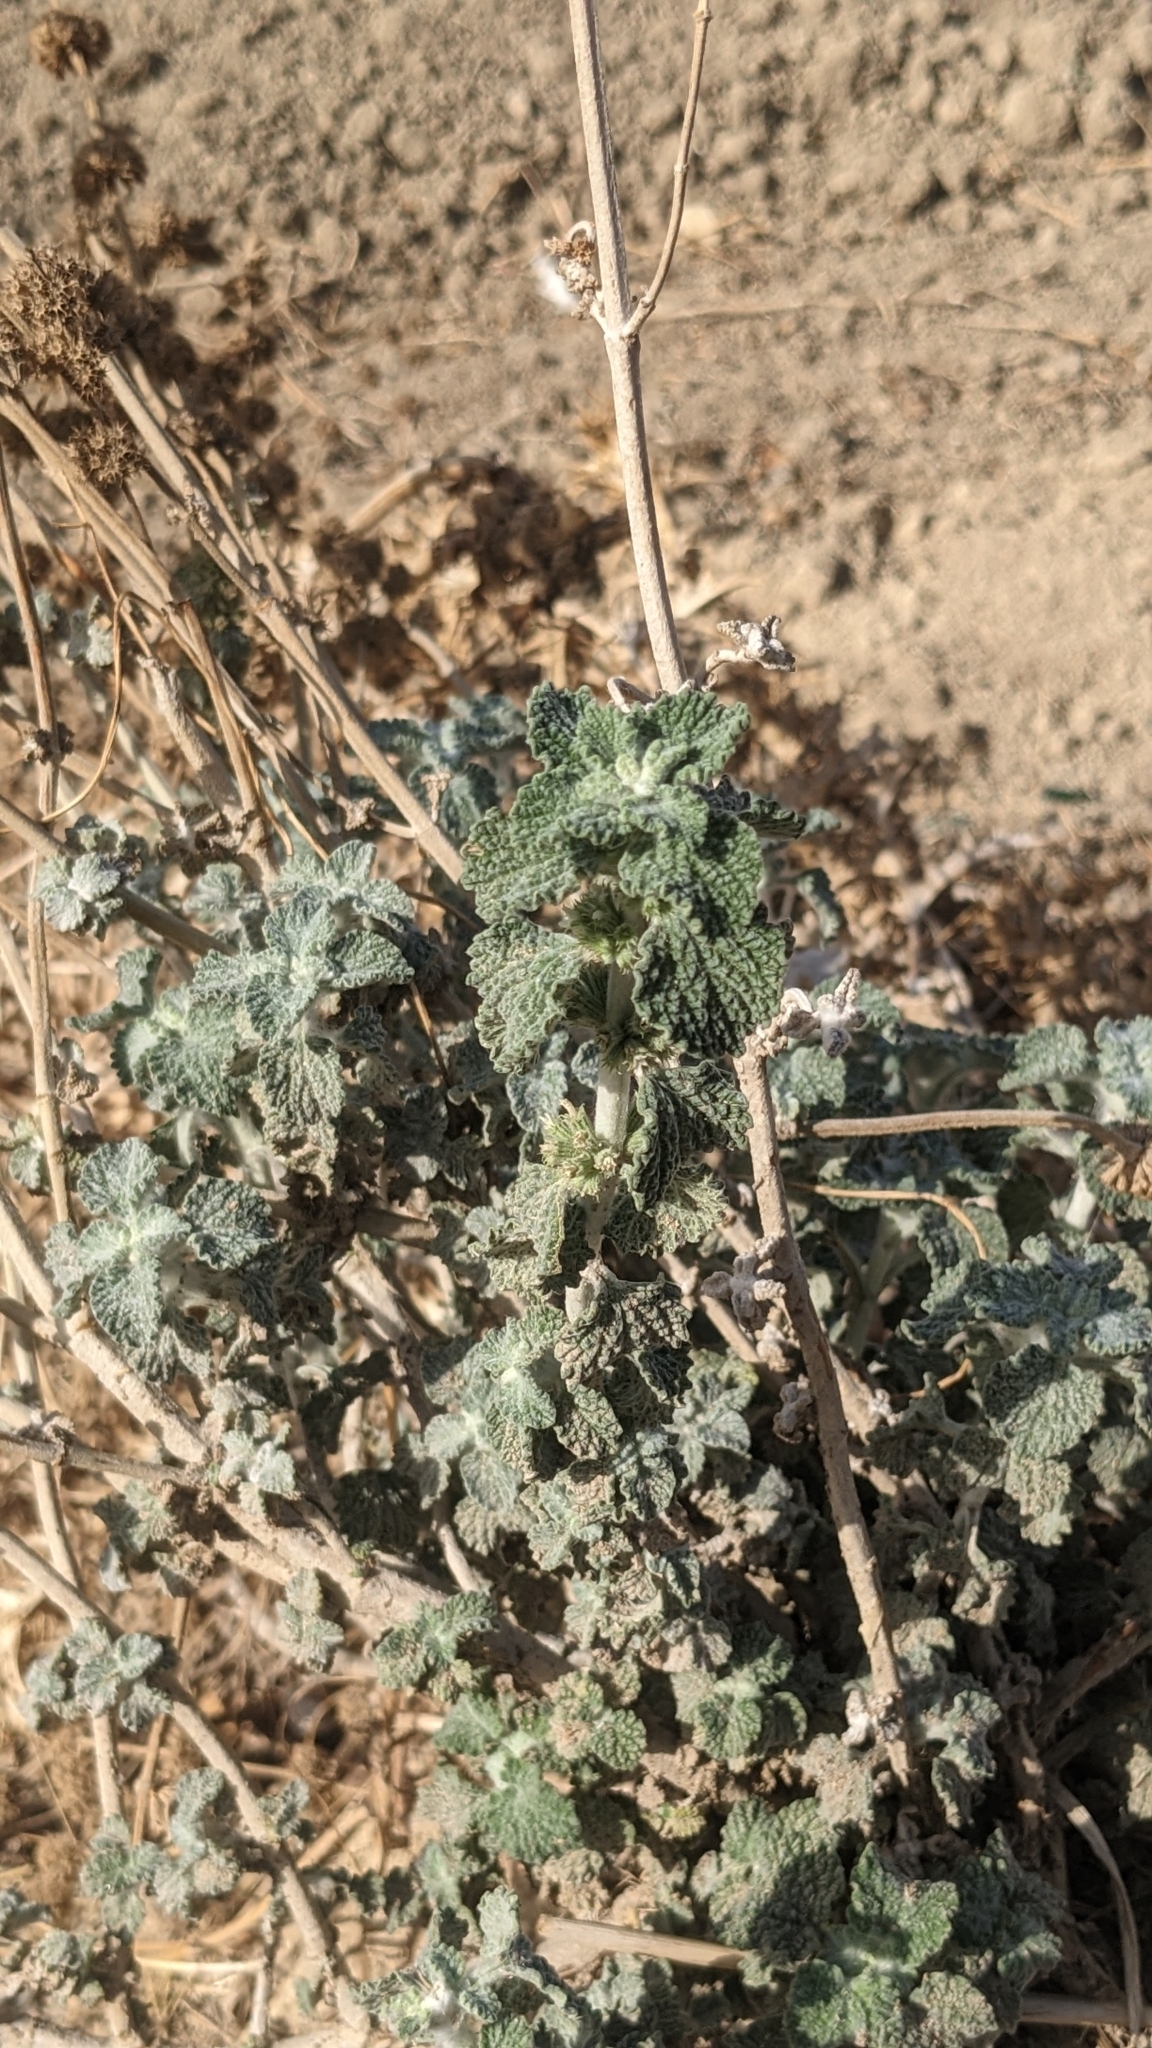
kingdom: Plantae
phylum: Tracheophyta
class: Magnoliopsida
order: Lamiales
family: Lamiaceae
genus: Marrubium
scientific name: Marrubium vulgare
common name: Horehound
